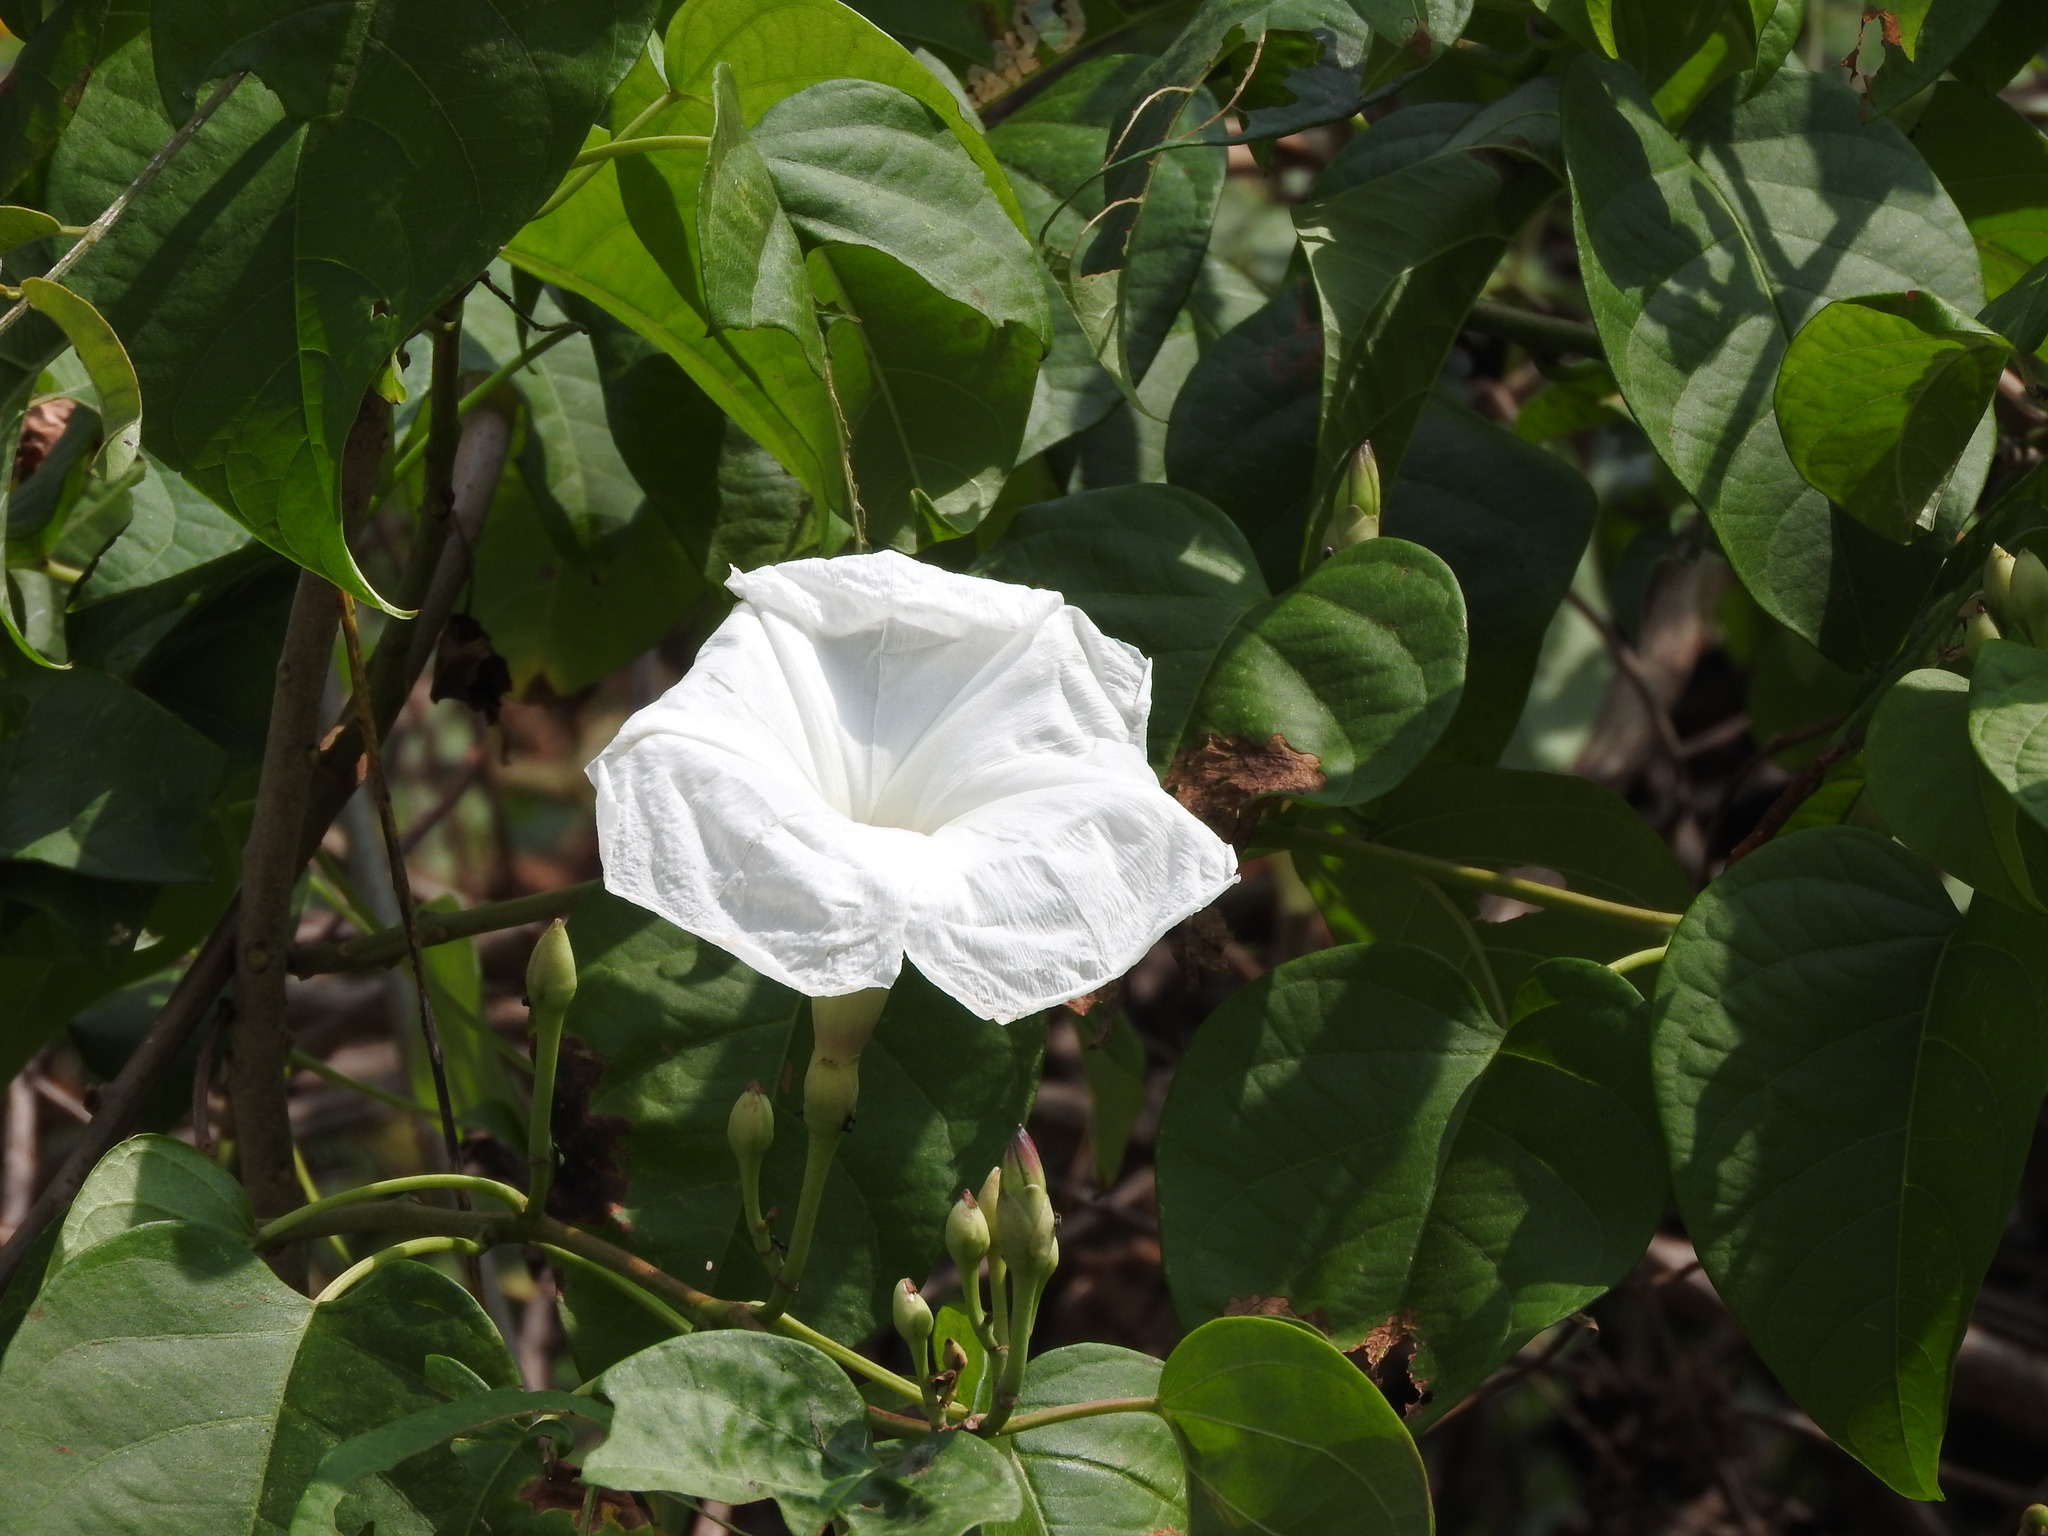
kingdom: Plantae
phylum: Tracheophyta
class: Magnoliopsida
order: Solanales
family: Convolvulaceae
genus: Ipomoea
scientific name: Ipomoea populina
